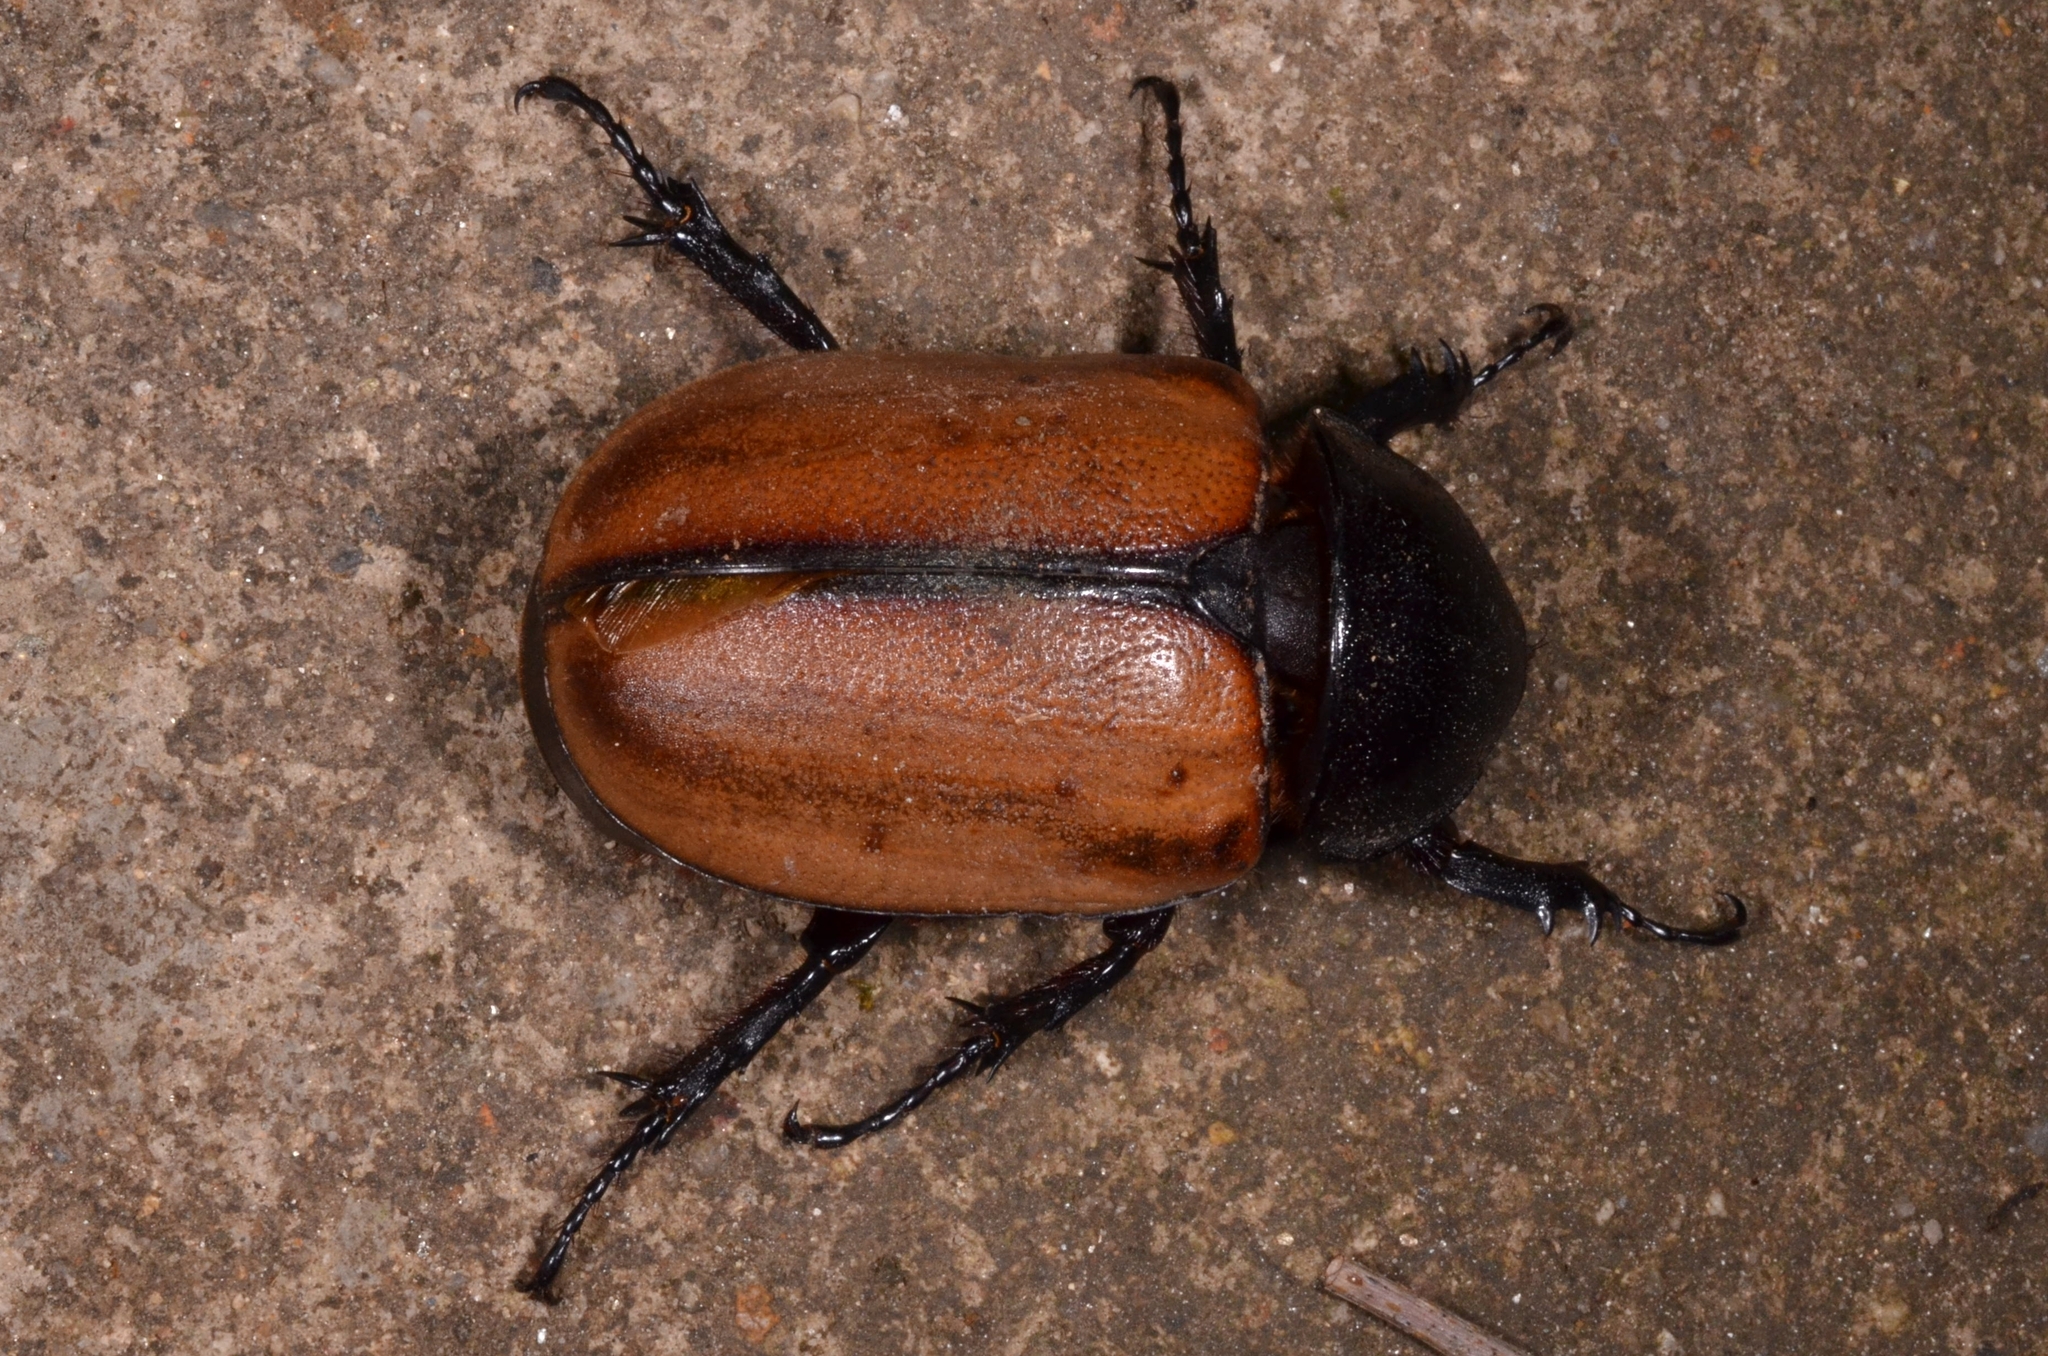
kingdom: Animalia
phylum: Arthropoda
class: Insecta
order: Coleoptera
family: Scarabaeidae
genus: Eupatorus
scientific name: Eupatorus gracilicornis
